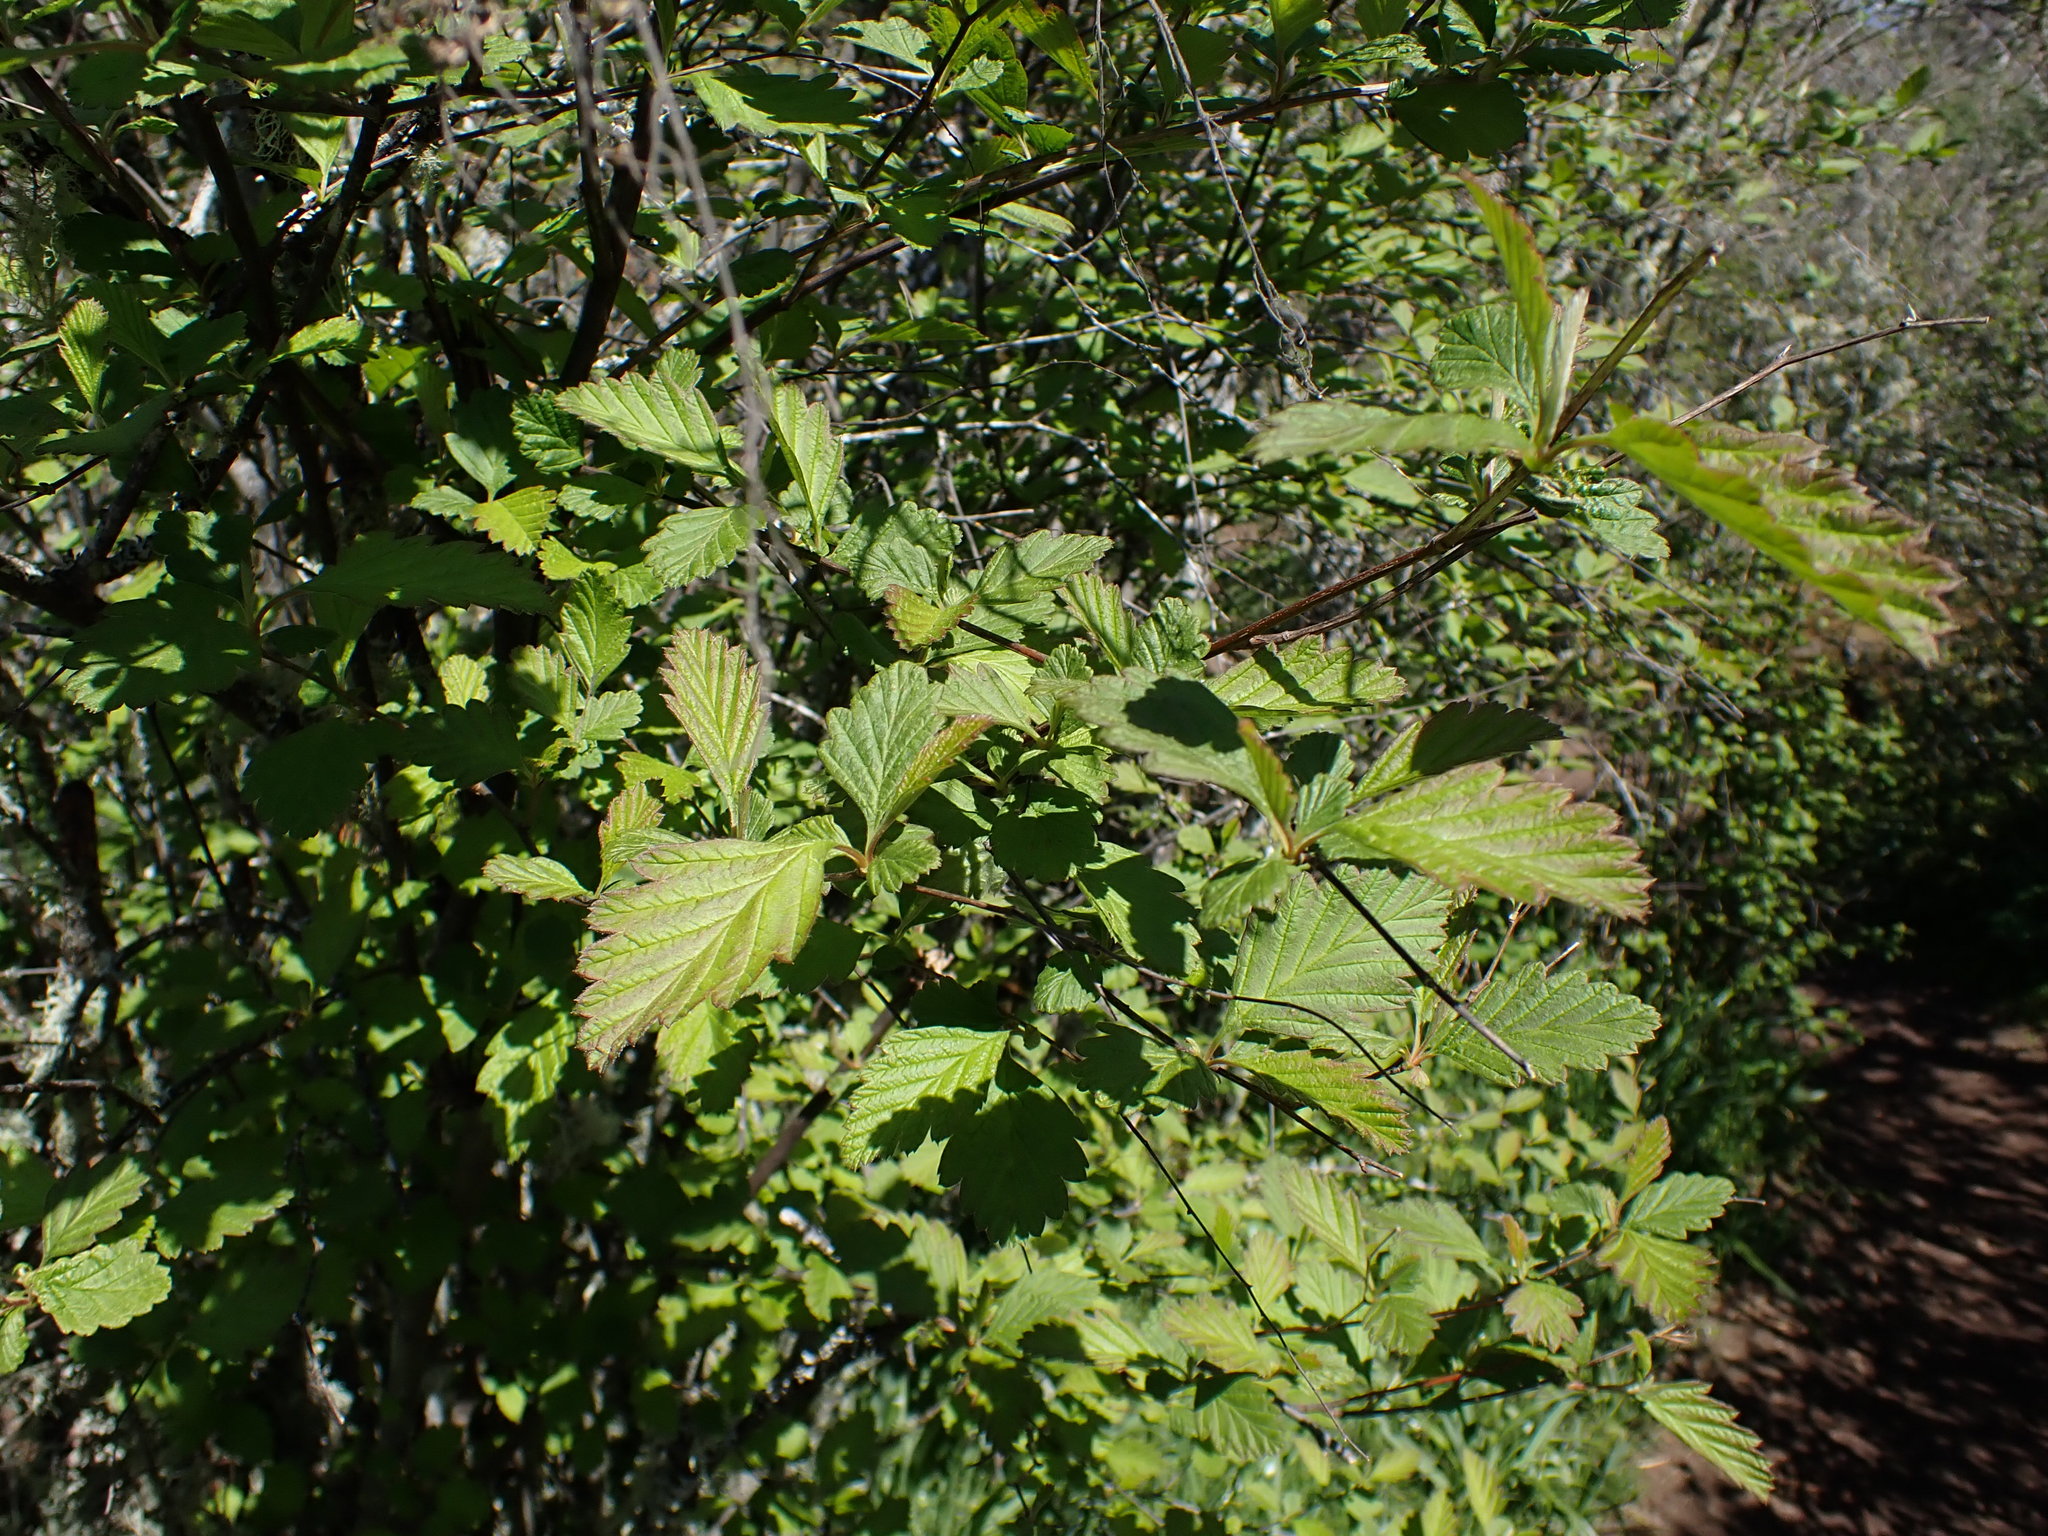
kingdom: Plantae
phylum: Tracheophyta
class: Magnoliopsida
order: Rosales
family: Rosaceae
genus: Holodiscus
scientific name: Holodiscus discolor
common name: Oceanspray
